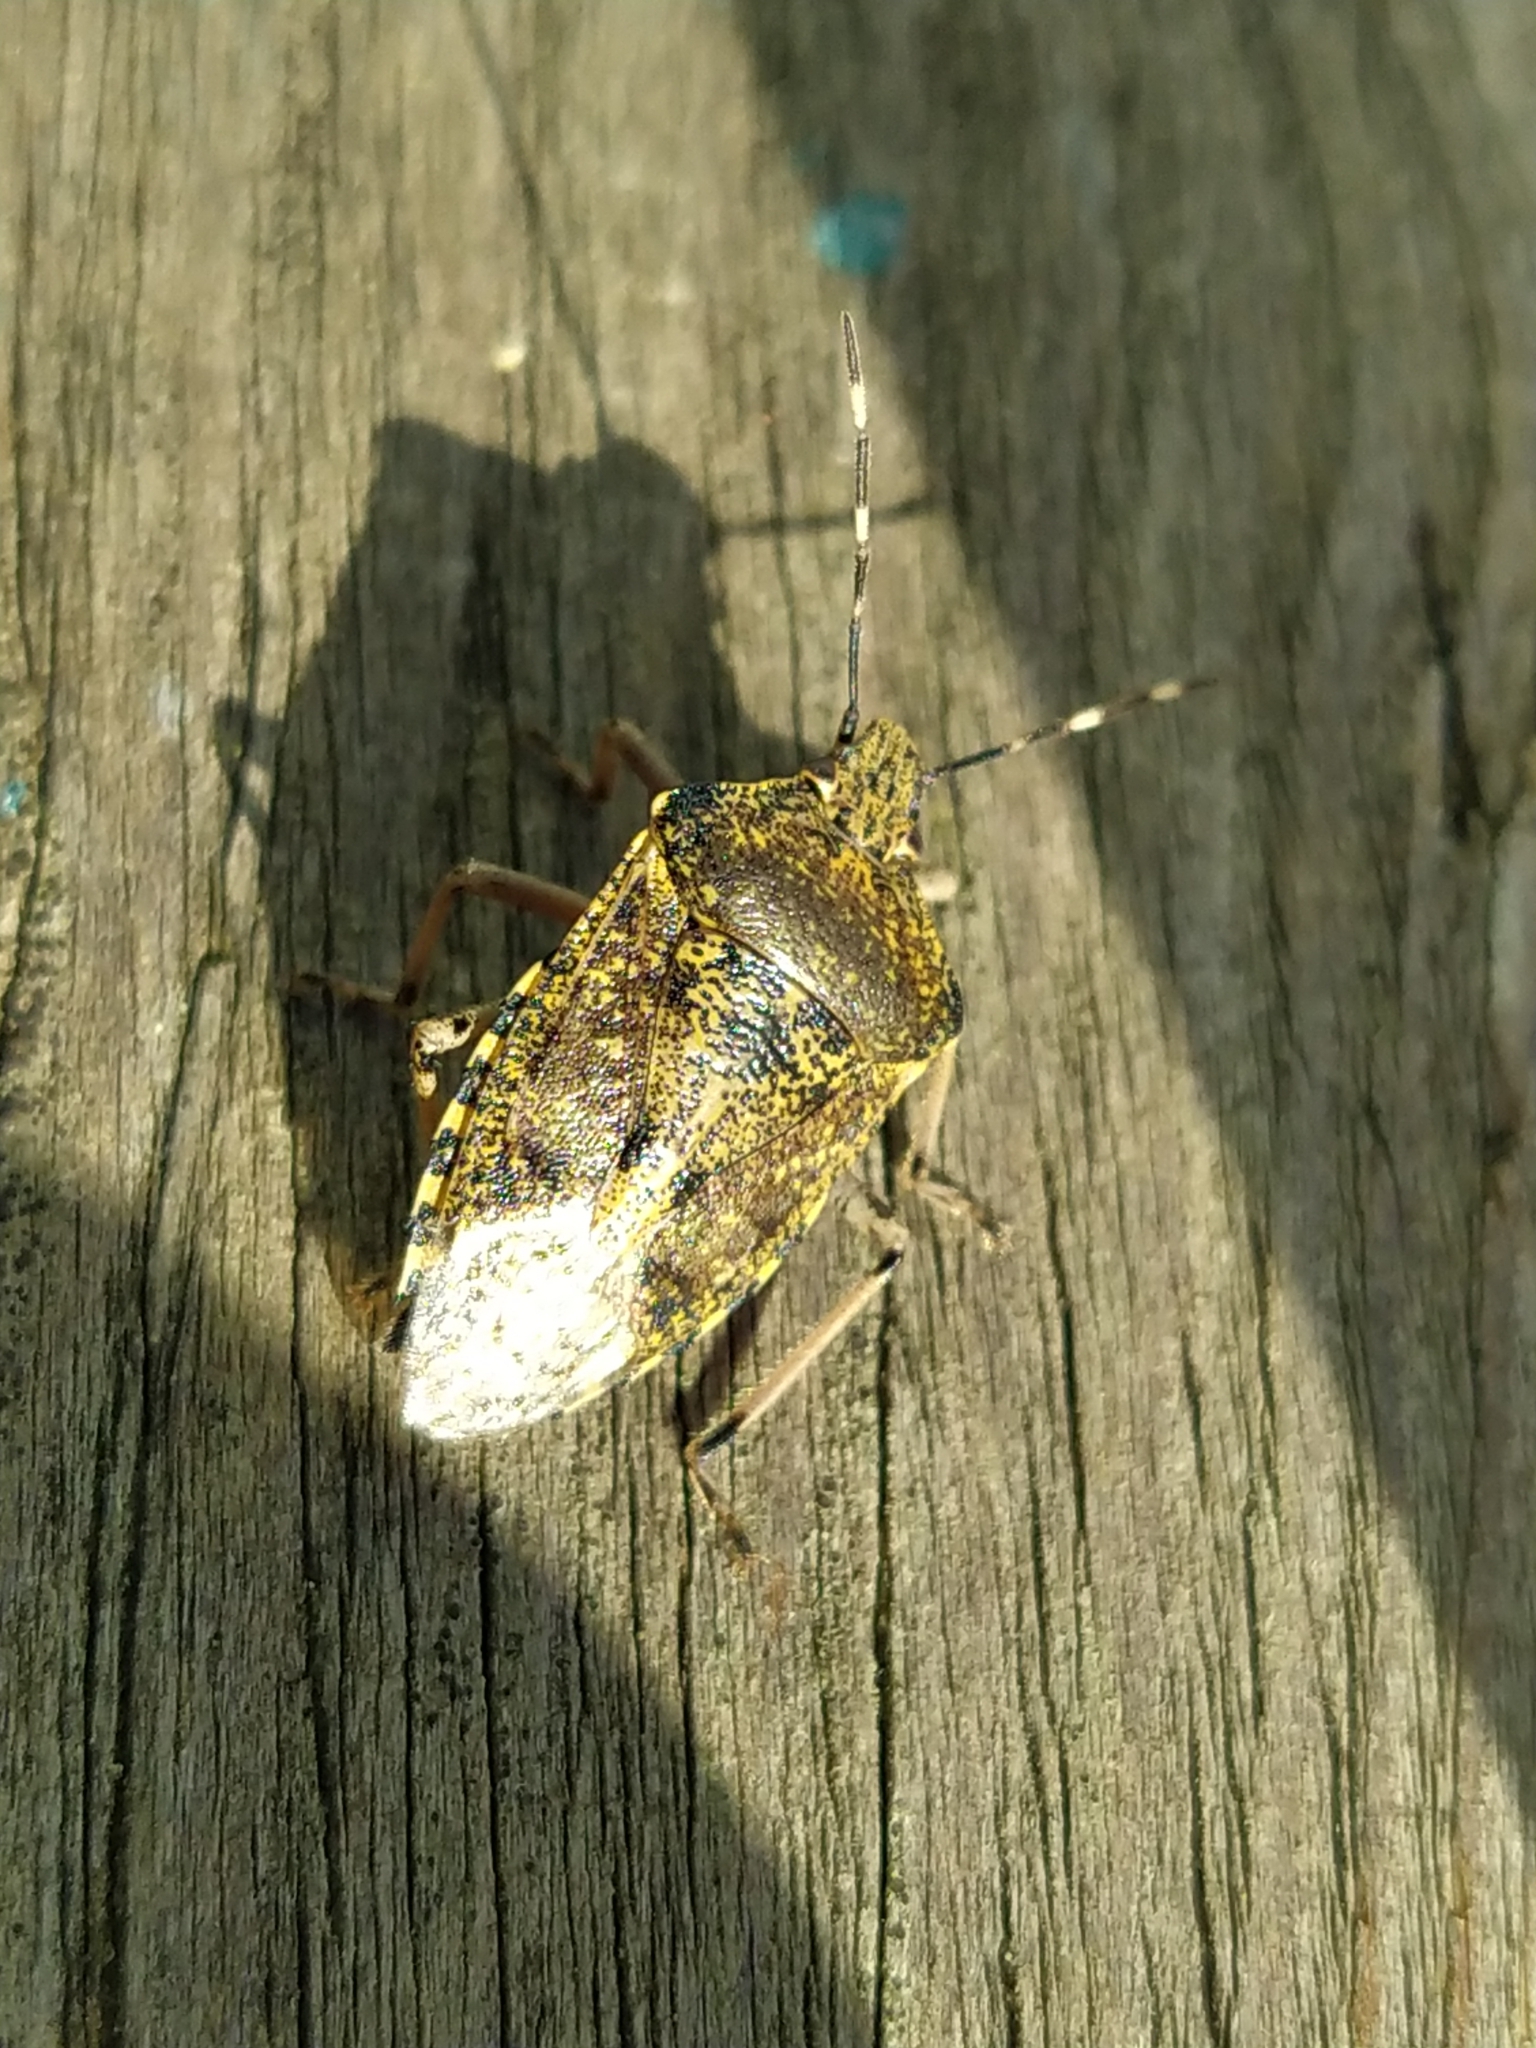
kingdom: Animalia
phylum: Arthropoda
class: Insecta
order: Hemiptera
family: Pentatomidae
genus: Rhaphigaster
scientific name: Rhaphigaster nebulosa
